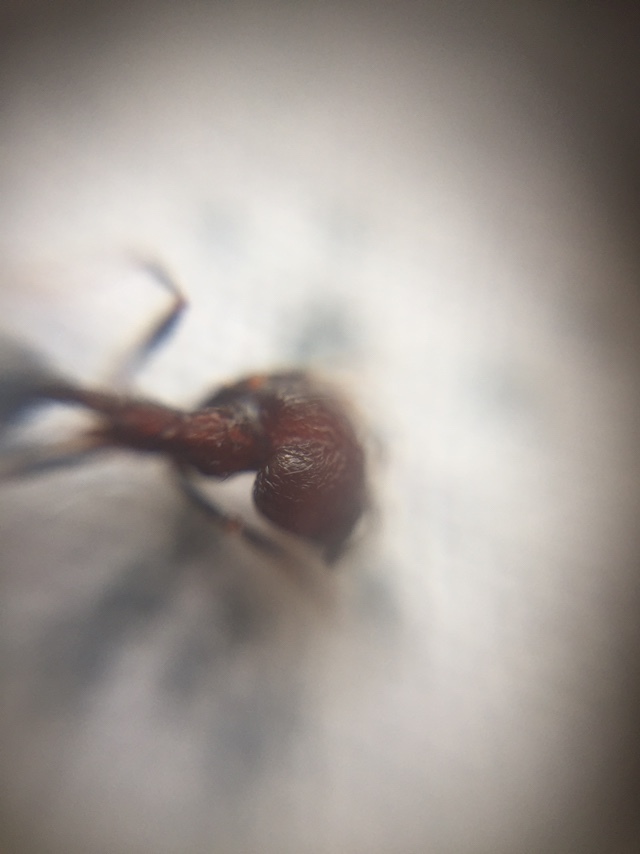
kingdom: Animalia
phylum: Arthropoda
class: Insecta
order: Hymenoptera
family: Formicidae
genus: Trichomyrmex
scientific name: Trichomyrmex
